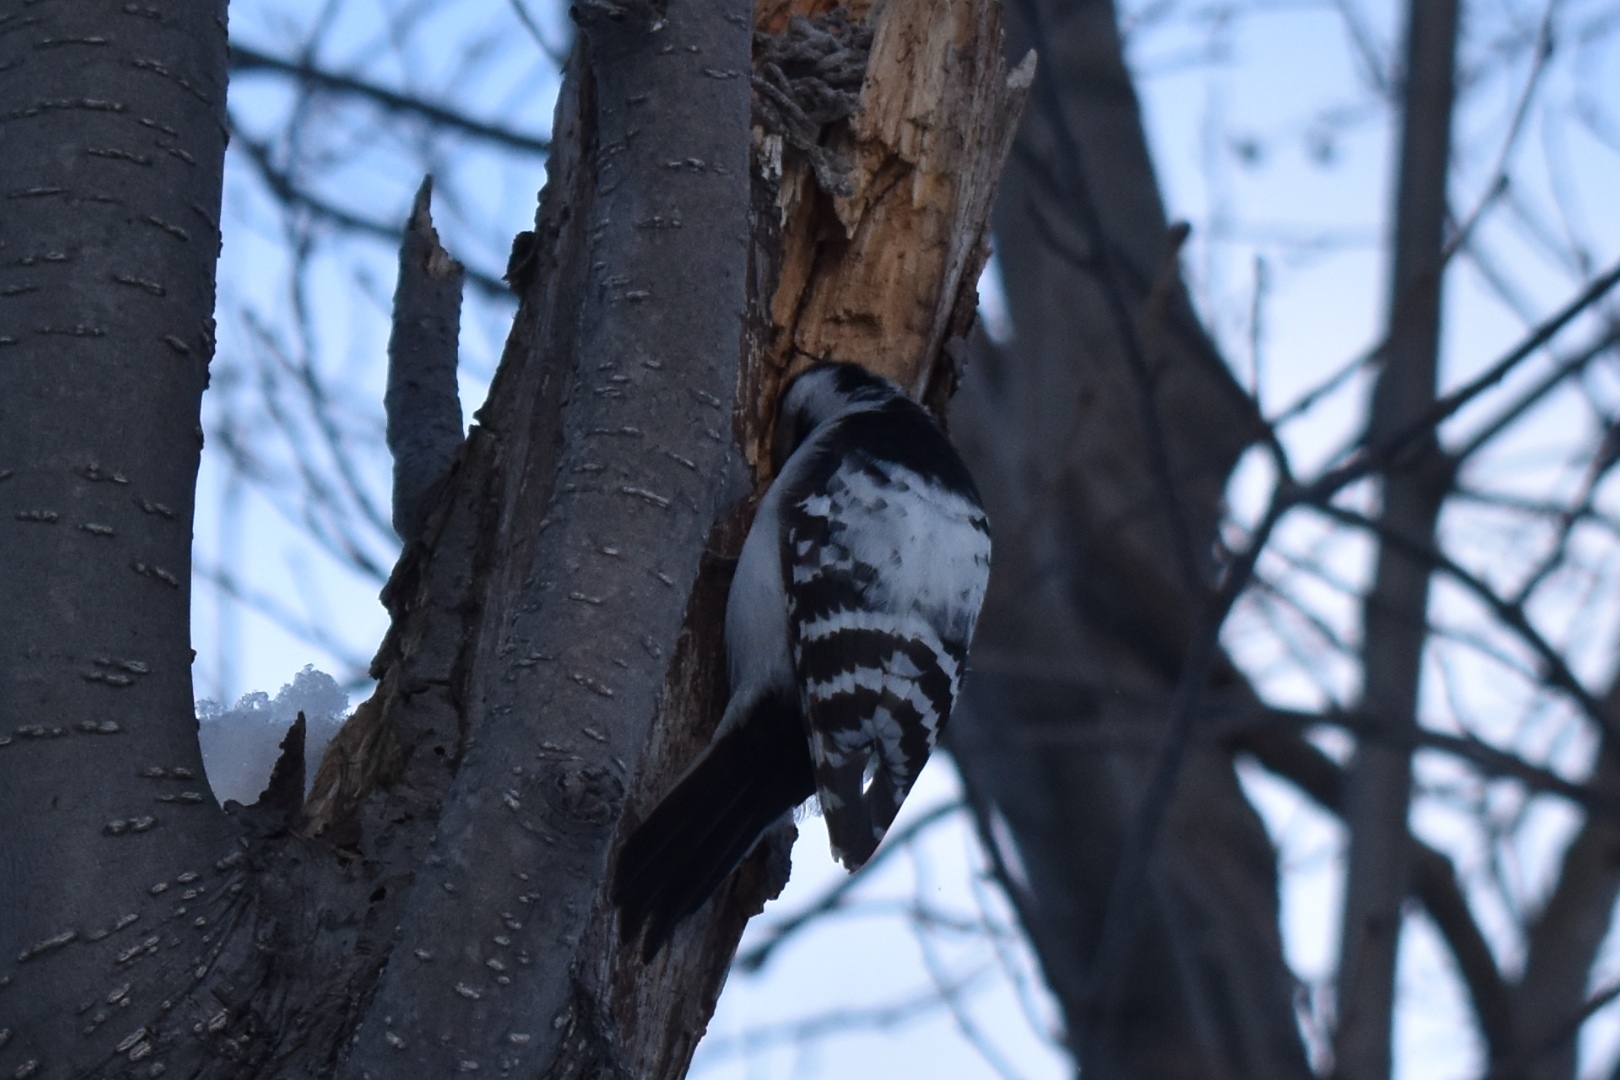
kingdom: Animalia
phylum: Chordata
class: Aves
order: Piciformes
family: Picidae
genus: Dryobates
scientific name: Dryobates minor
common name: Lesser spotted woodpecker
